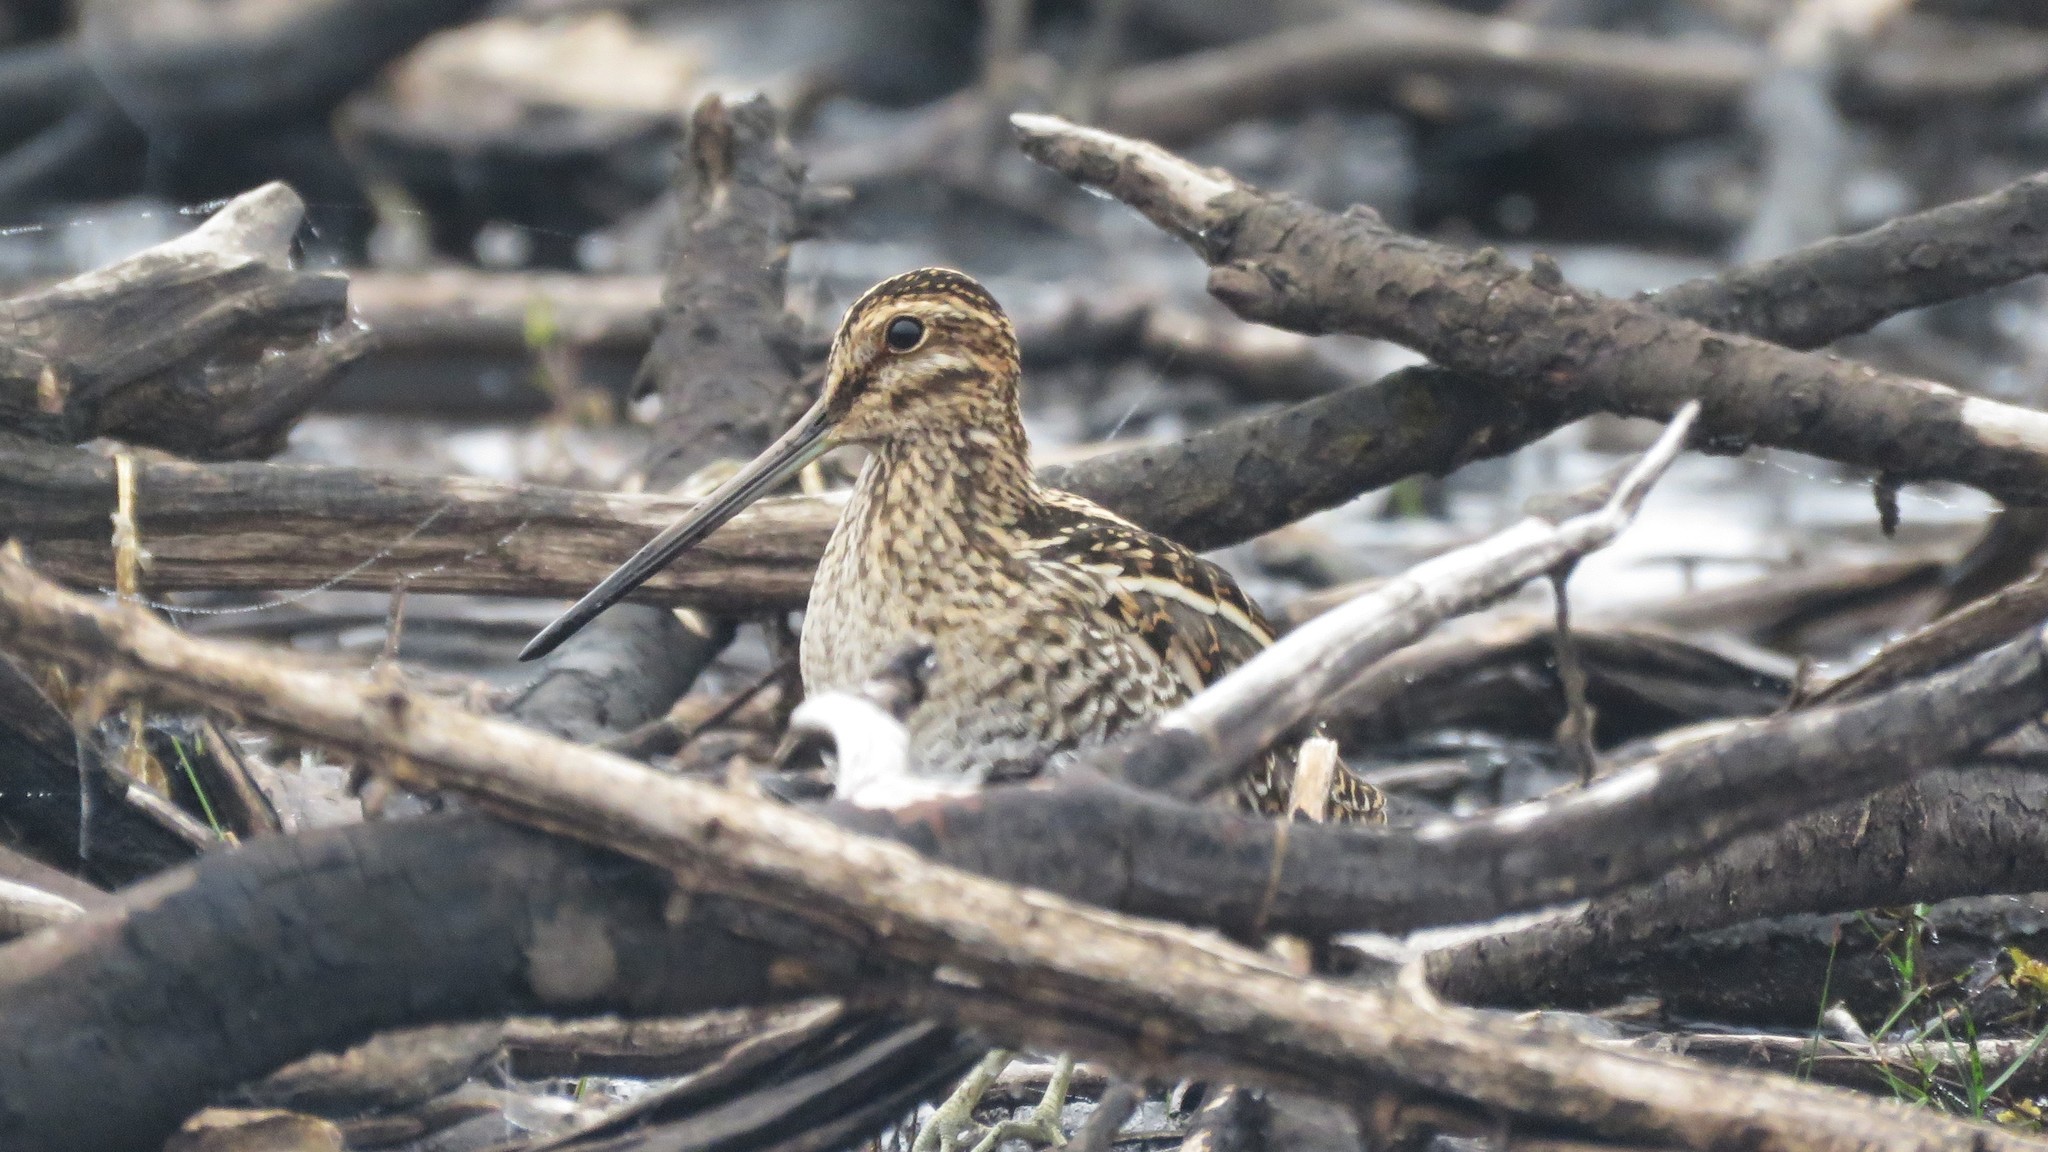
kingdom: Animalia
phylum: Chordata
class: Aves
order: Charadriiformes
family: Scolopacidae
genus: Gallinago
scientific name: Gallinago delicata
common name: Wilson's snipe
